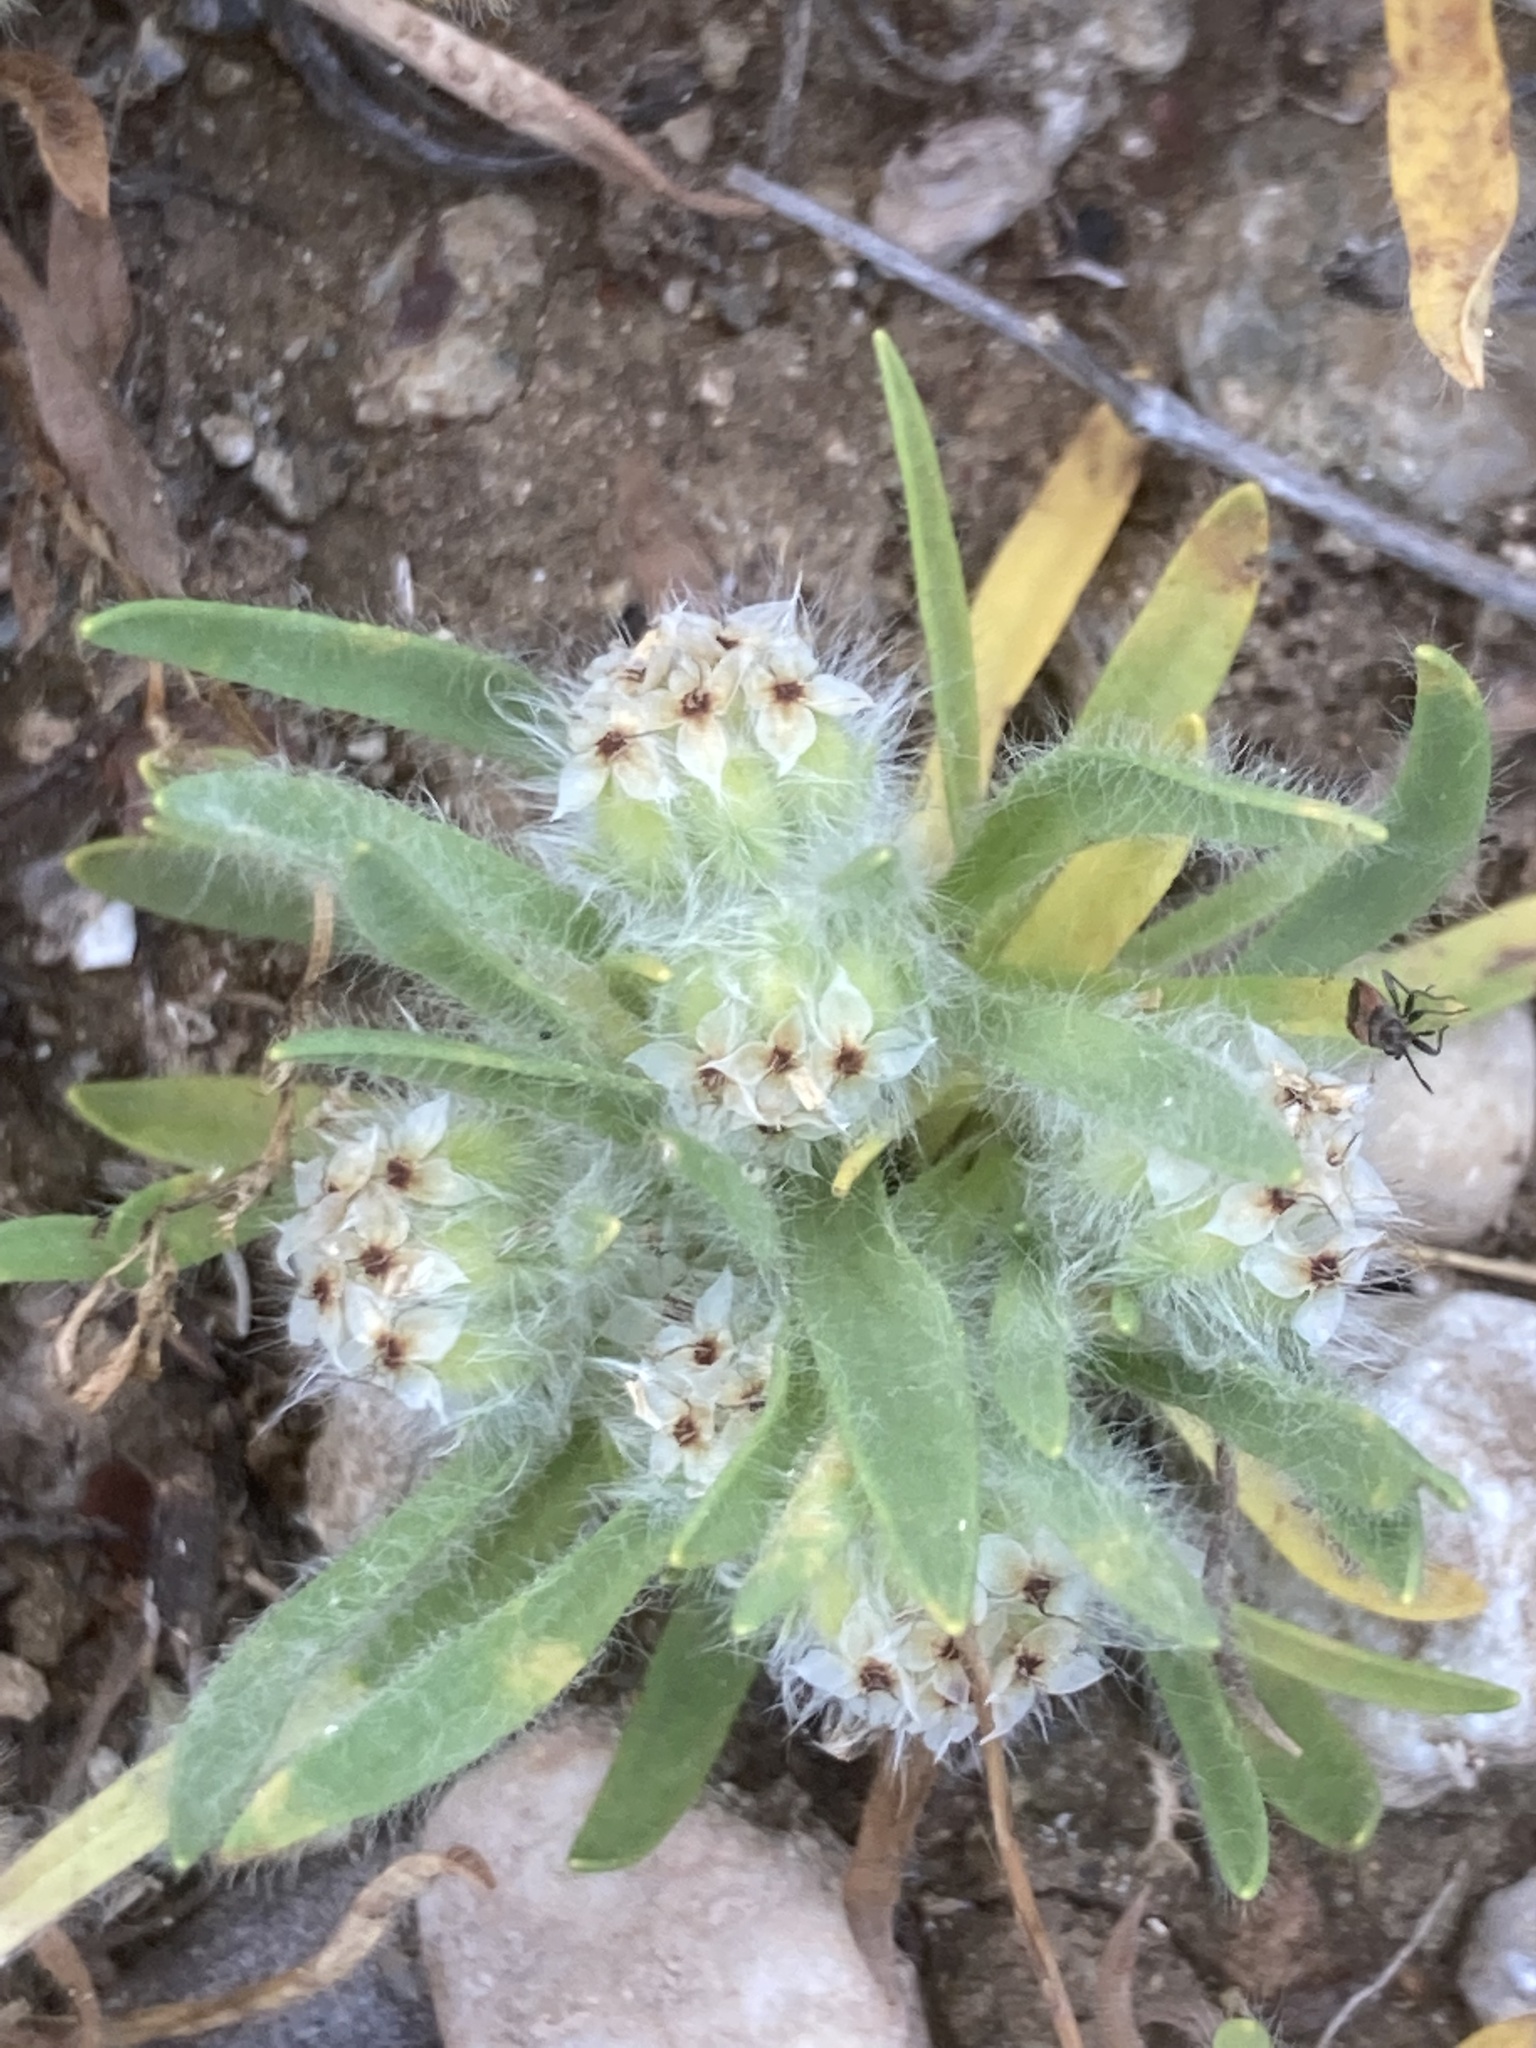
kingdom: Plantae
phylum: Tracheophyta
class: Magnoliopsida
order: Lamiales
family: Plantaginaceae
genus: Plantago
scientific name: Plantago cretica
